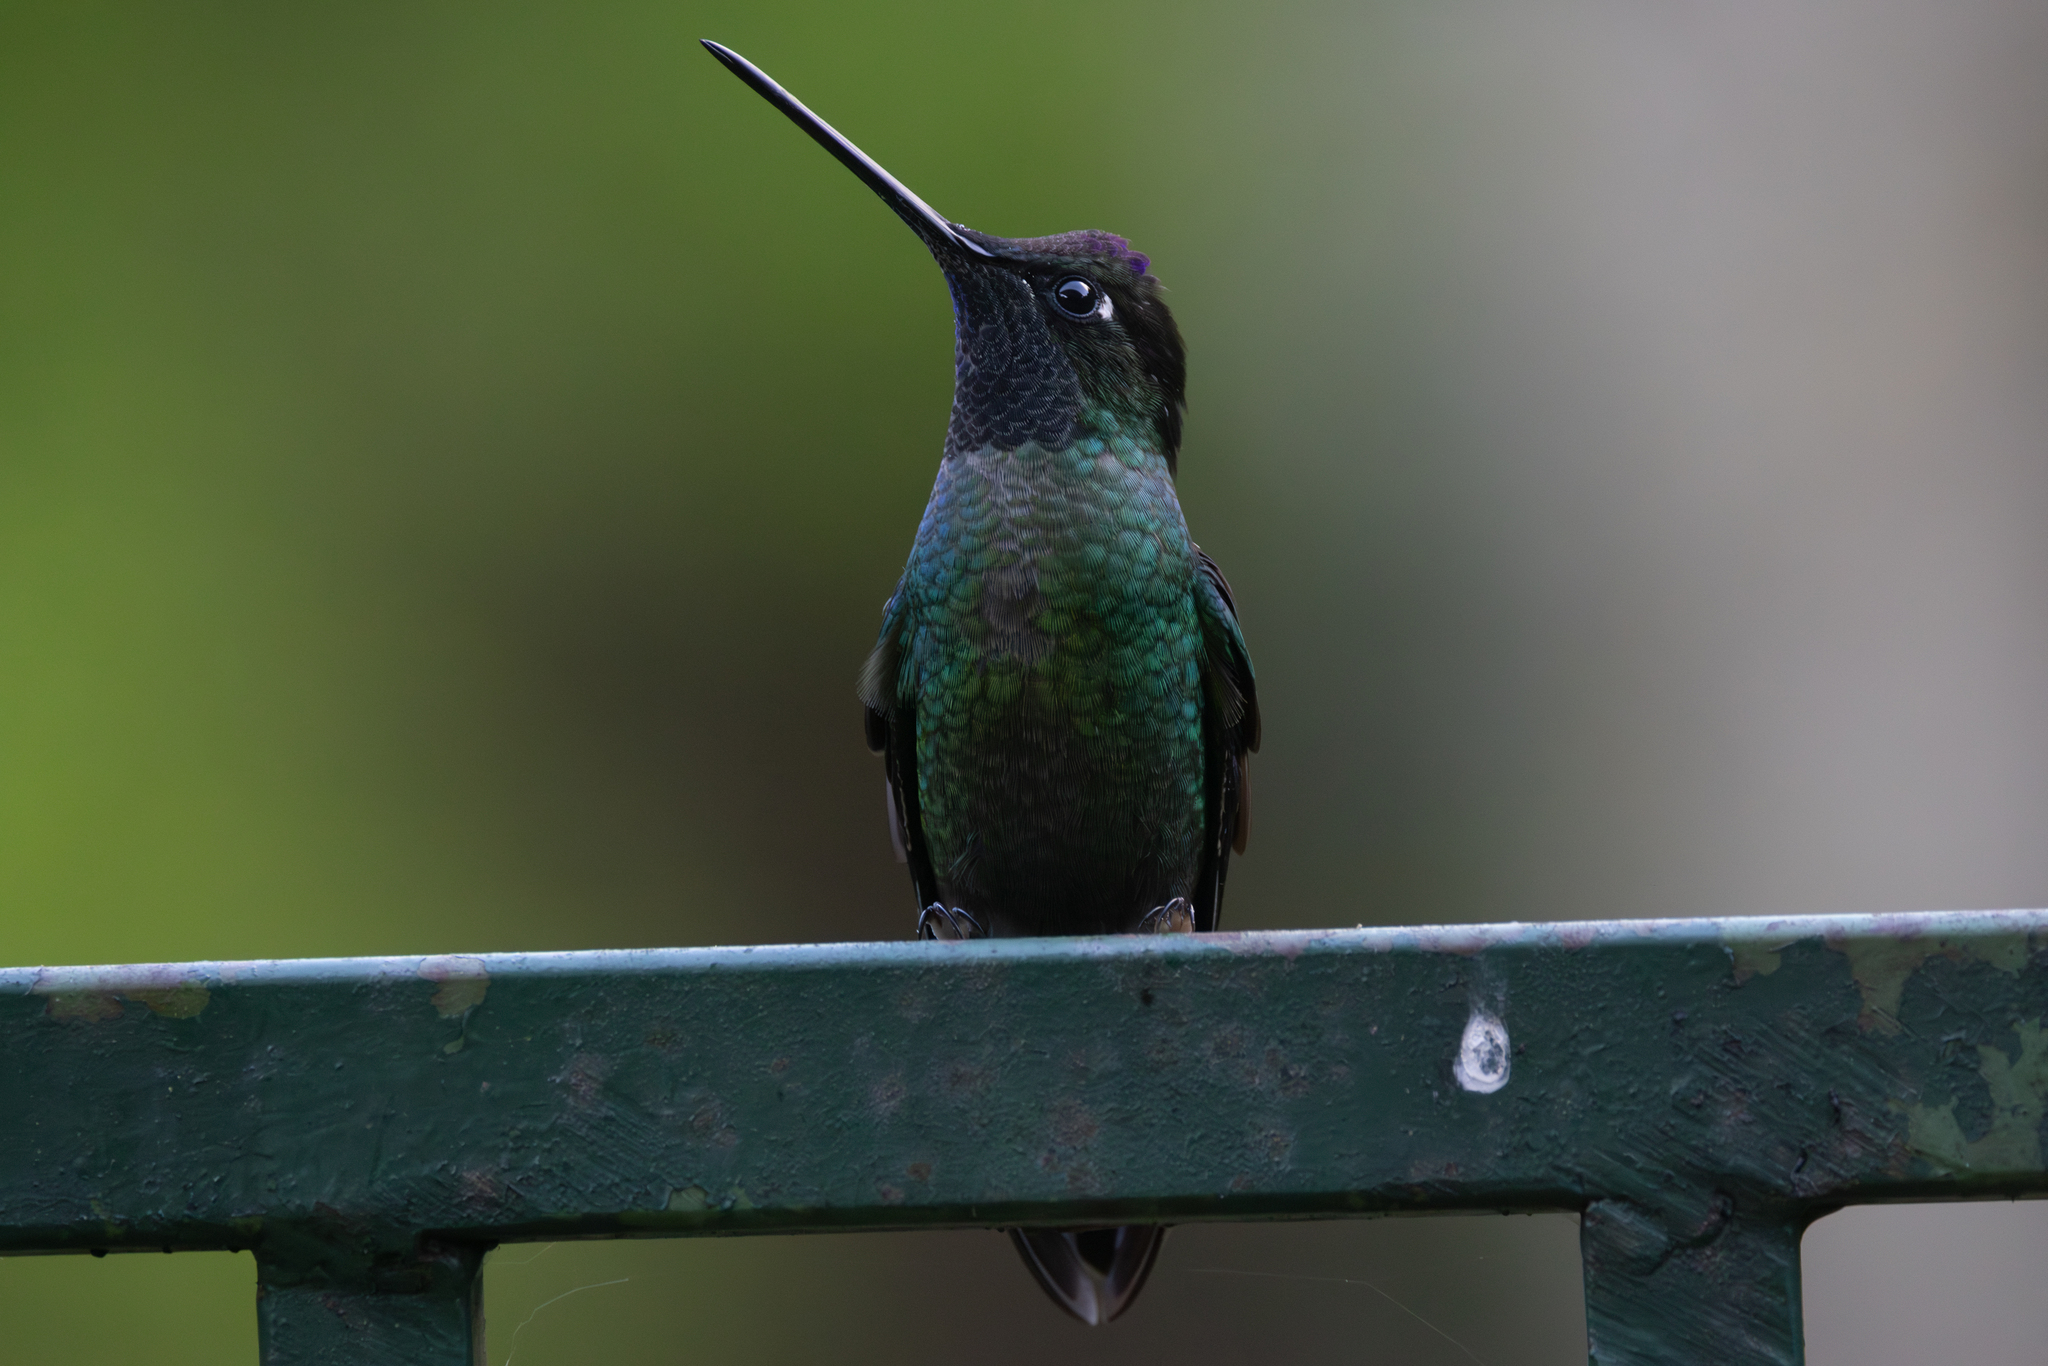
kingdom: Animalia
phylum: Chordata
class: Aves
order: Apodiformes
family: Trochilidae
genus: Eugenes
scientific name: Eugenes spectabilis
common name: Talamanca hummingbird
